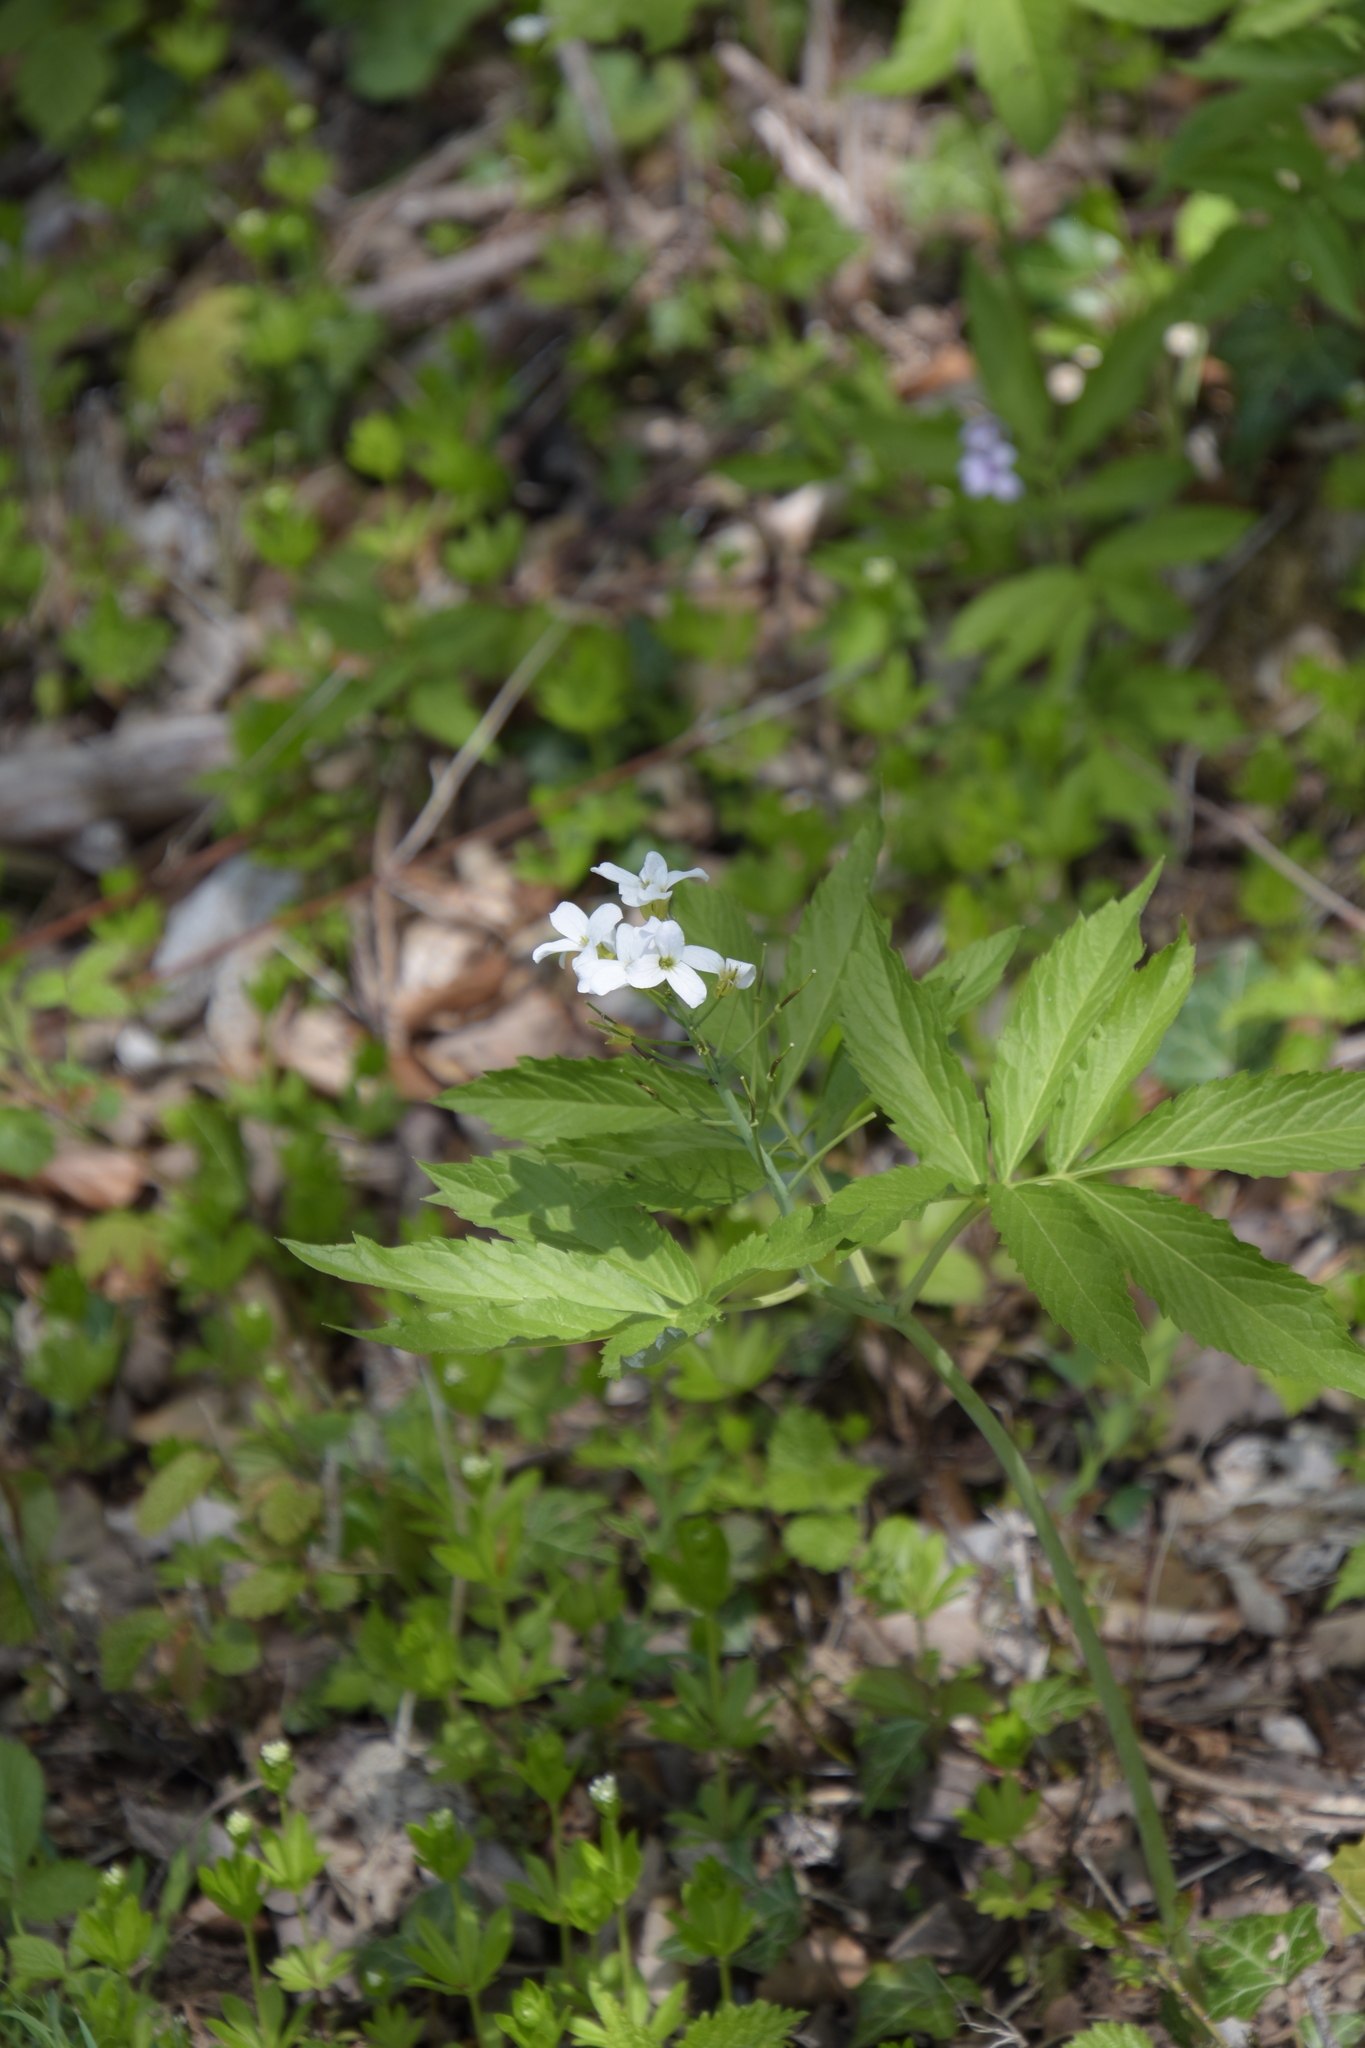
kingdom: Plantae
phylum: Tracheophyta
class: Magnoliopsida
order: Brassicales
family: Brassicaceae
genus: Cardamine
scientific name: Cardamine heptaphylla
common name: Pinnate coralroot
